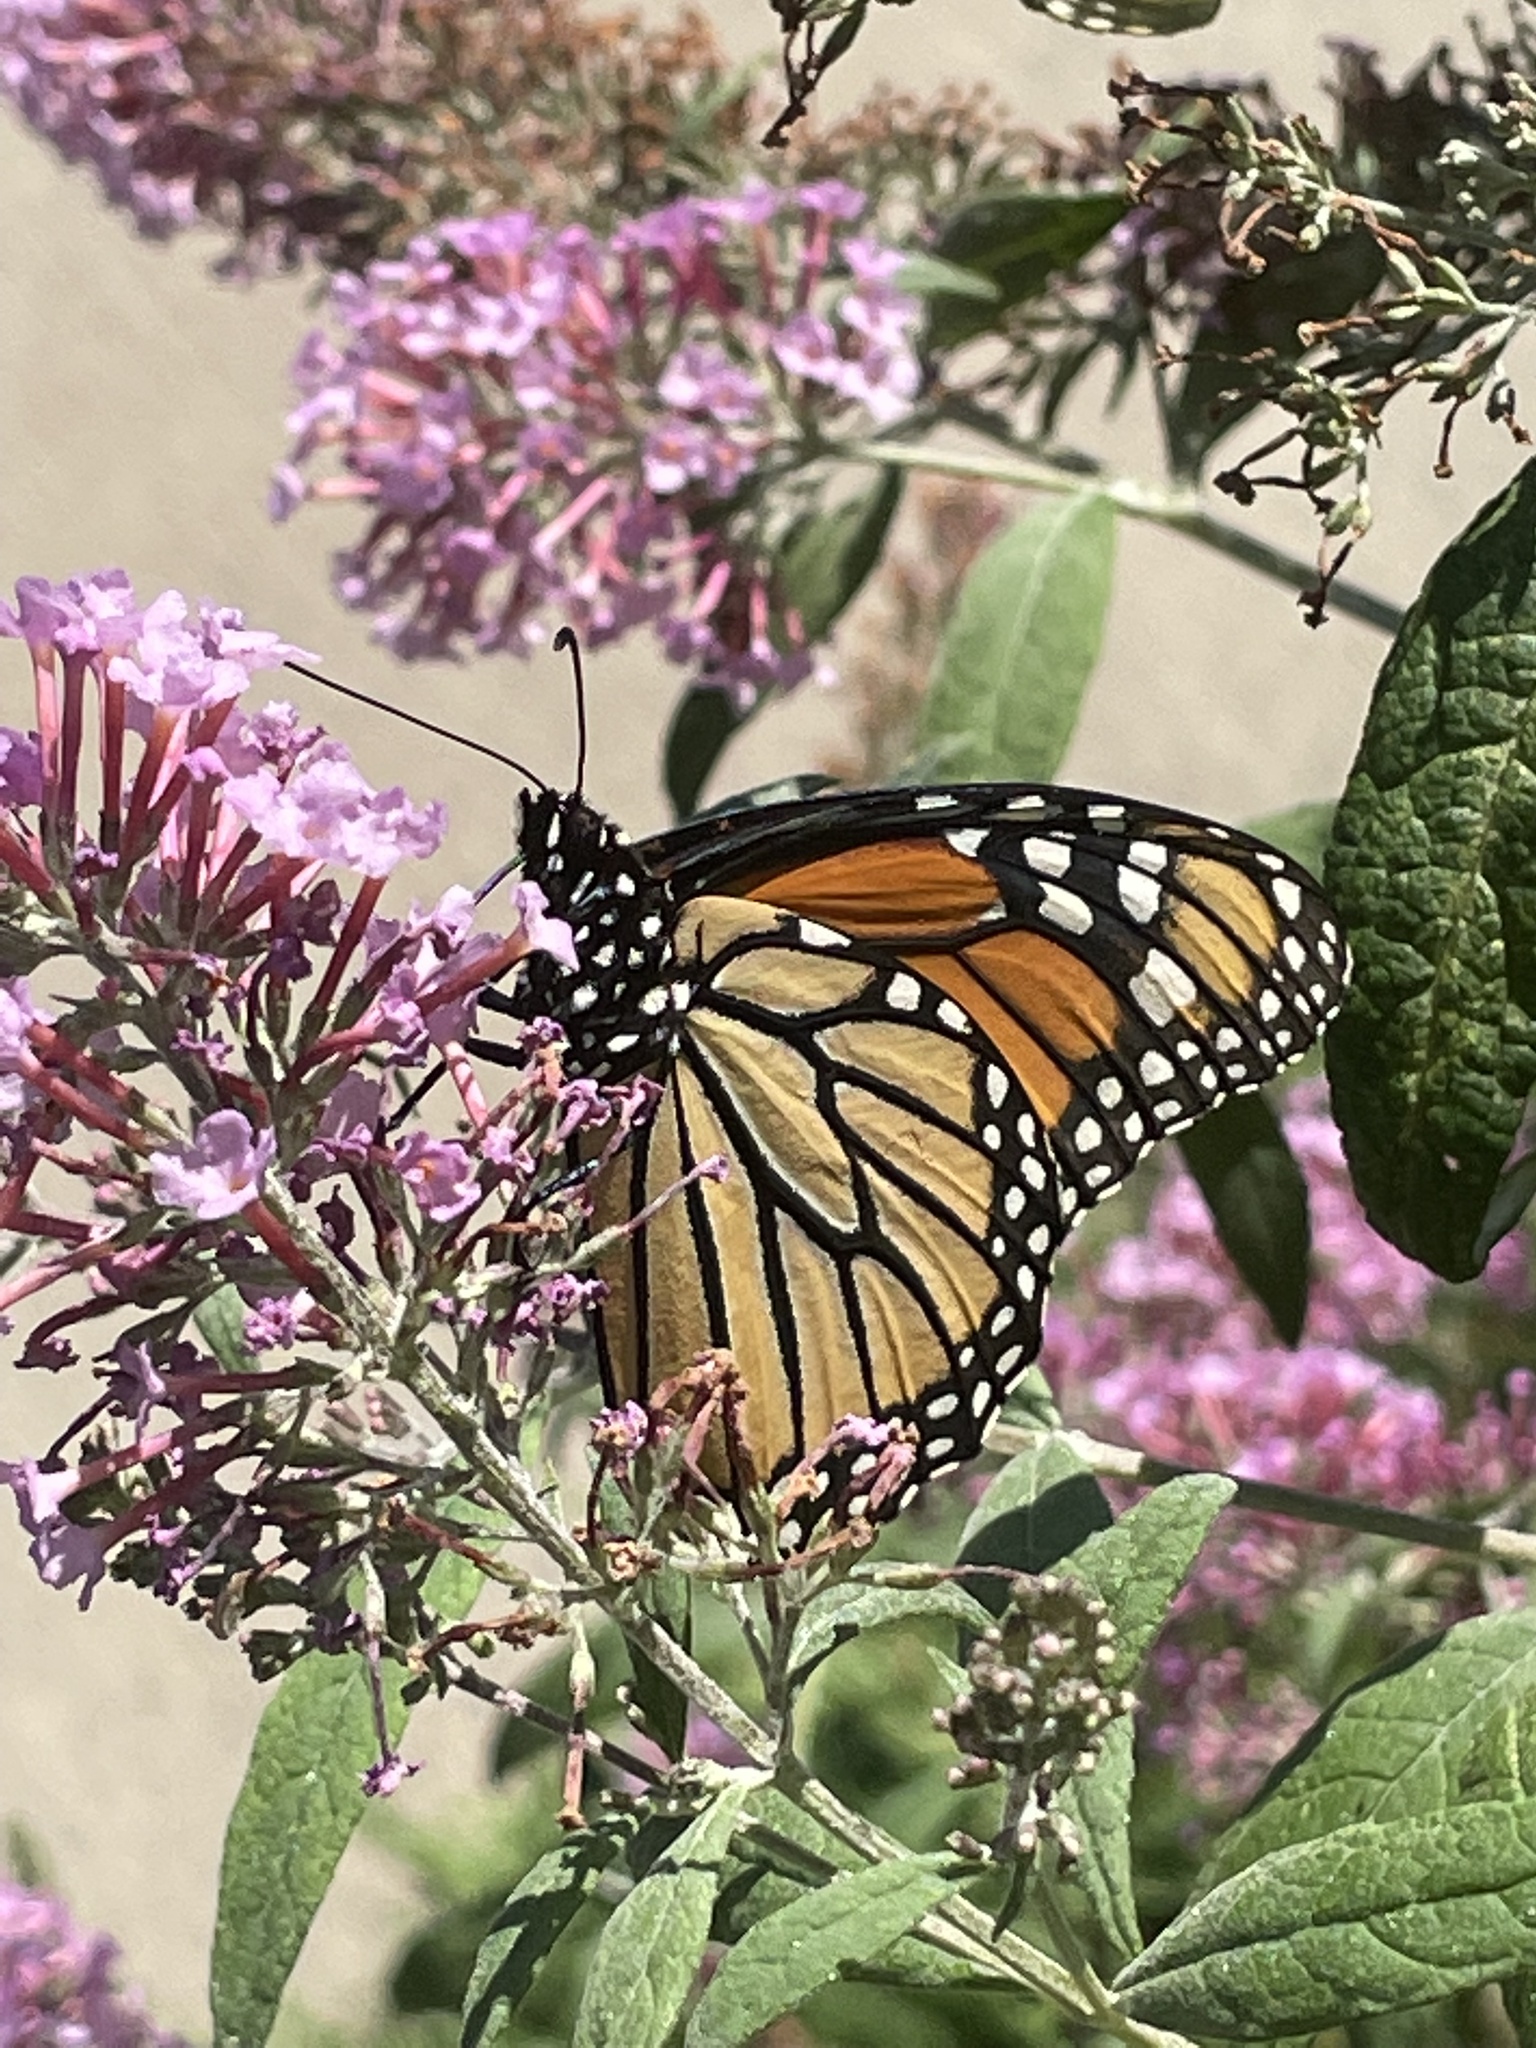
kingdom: Animalia
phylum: Arthropoda
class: Insecta
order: Lepidoptera
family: Nymphalidae
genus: Danaus
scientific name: Danaus plexippus
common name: Monarch
